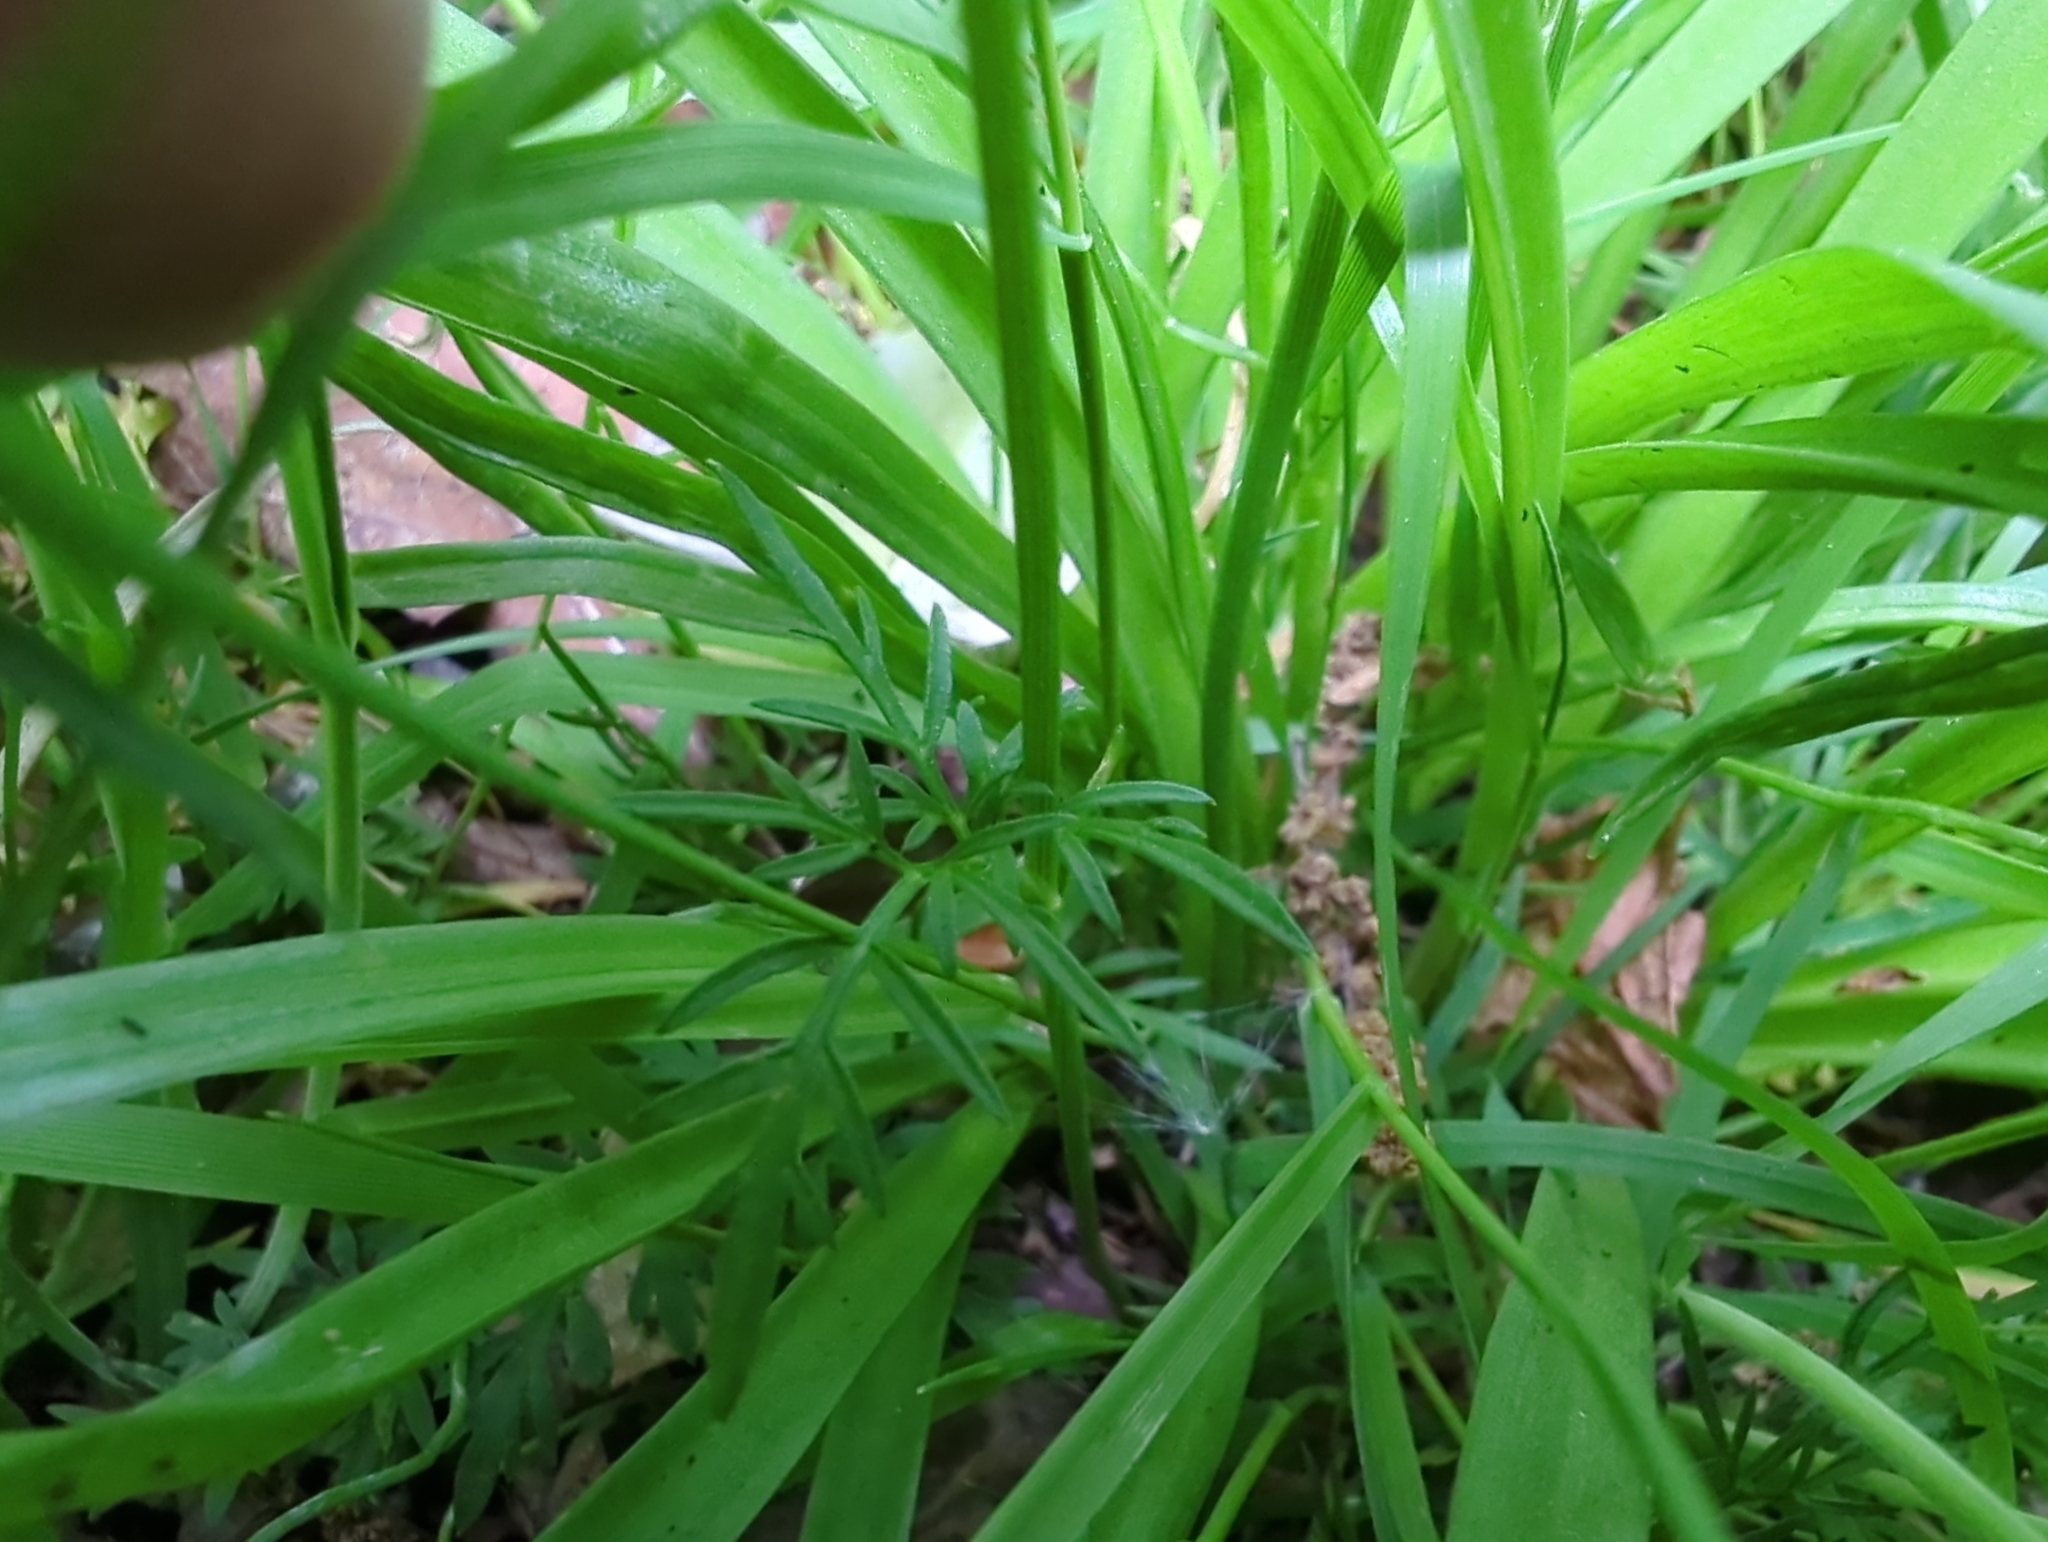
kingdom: Plantae
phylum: Tracheophyta
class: Magnoliopsida
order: Apiales
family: Apiaceae
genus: Conopodium
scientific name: Conopodium majus
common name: Pignut
